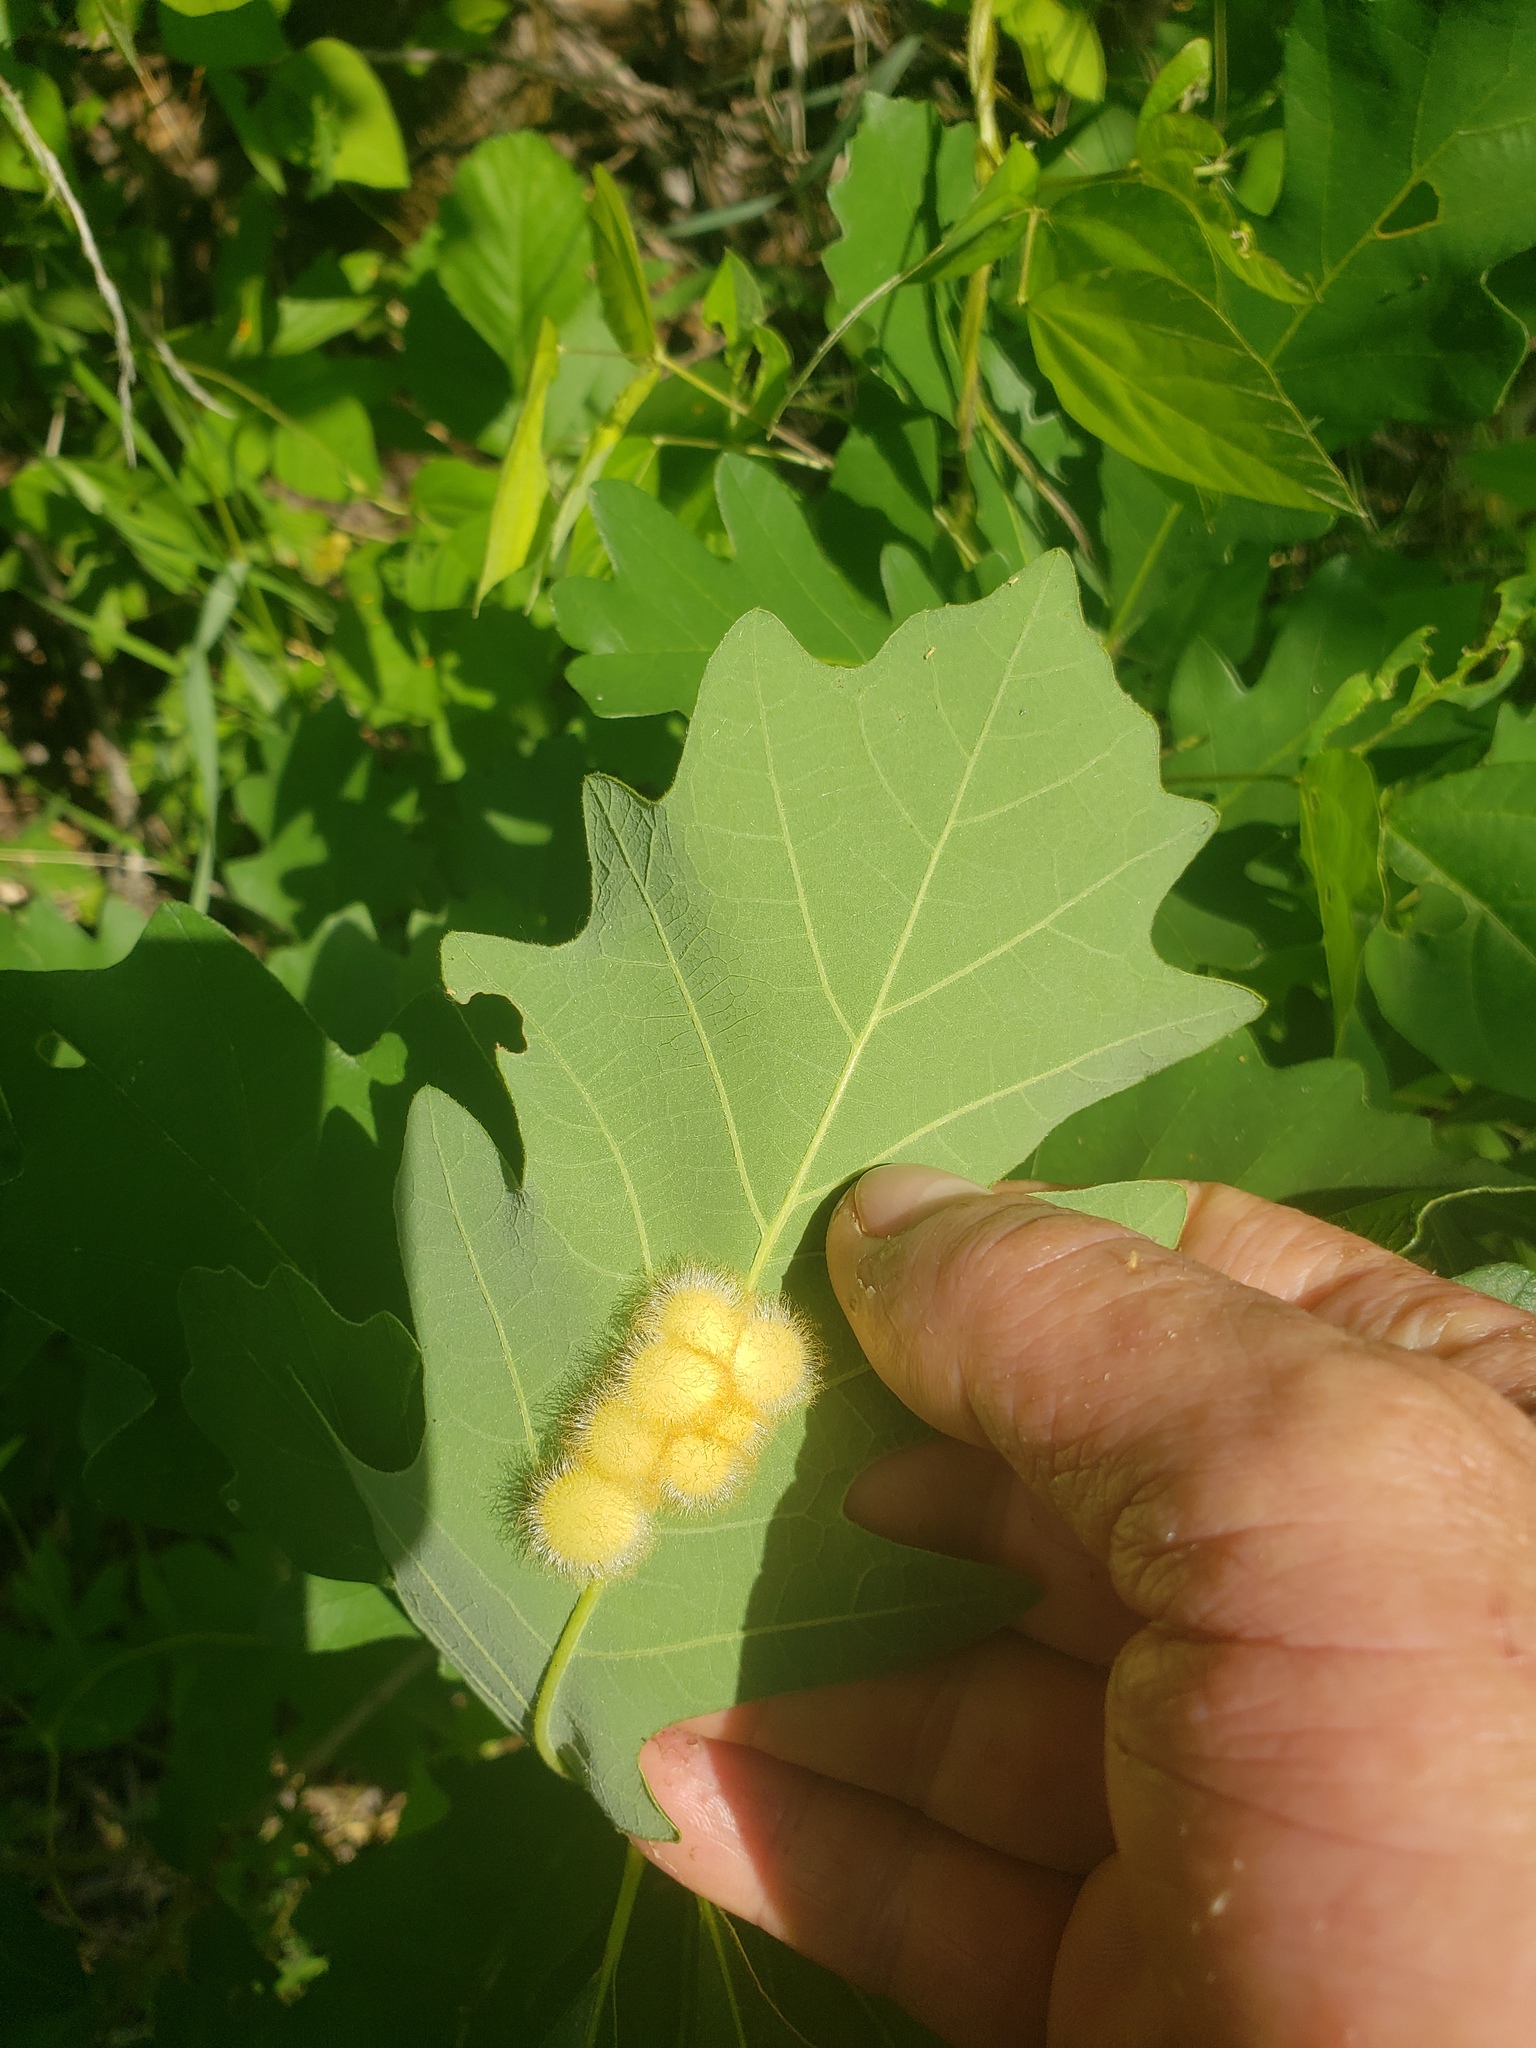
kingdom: Animalia
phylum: Arthropoda
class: Insecta
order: Hymenoptera
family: Cynipidae
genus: Acraspis
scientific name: Acraspis villosa
